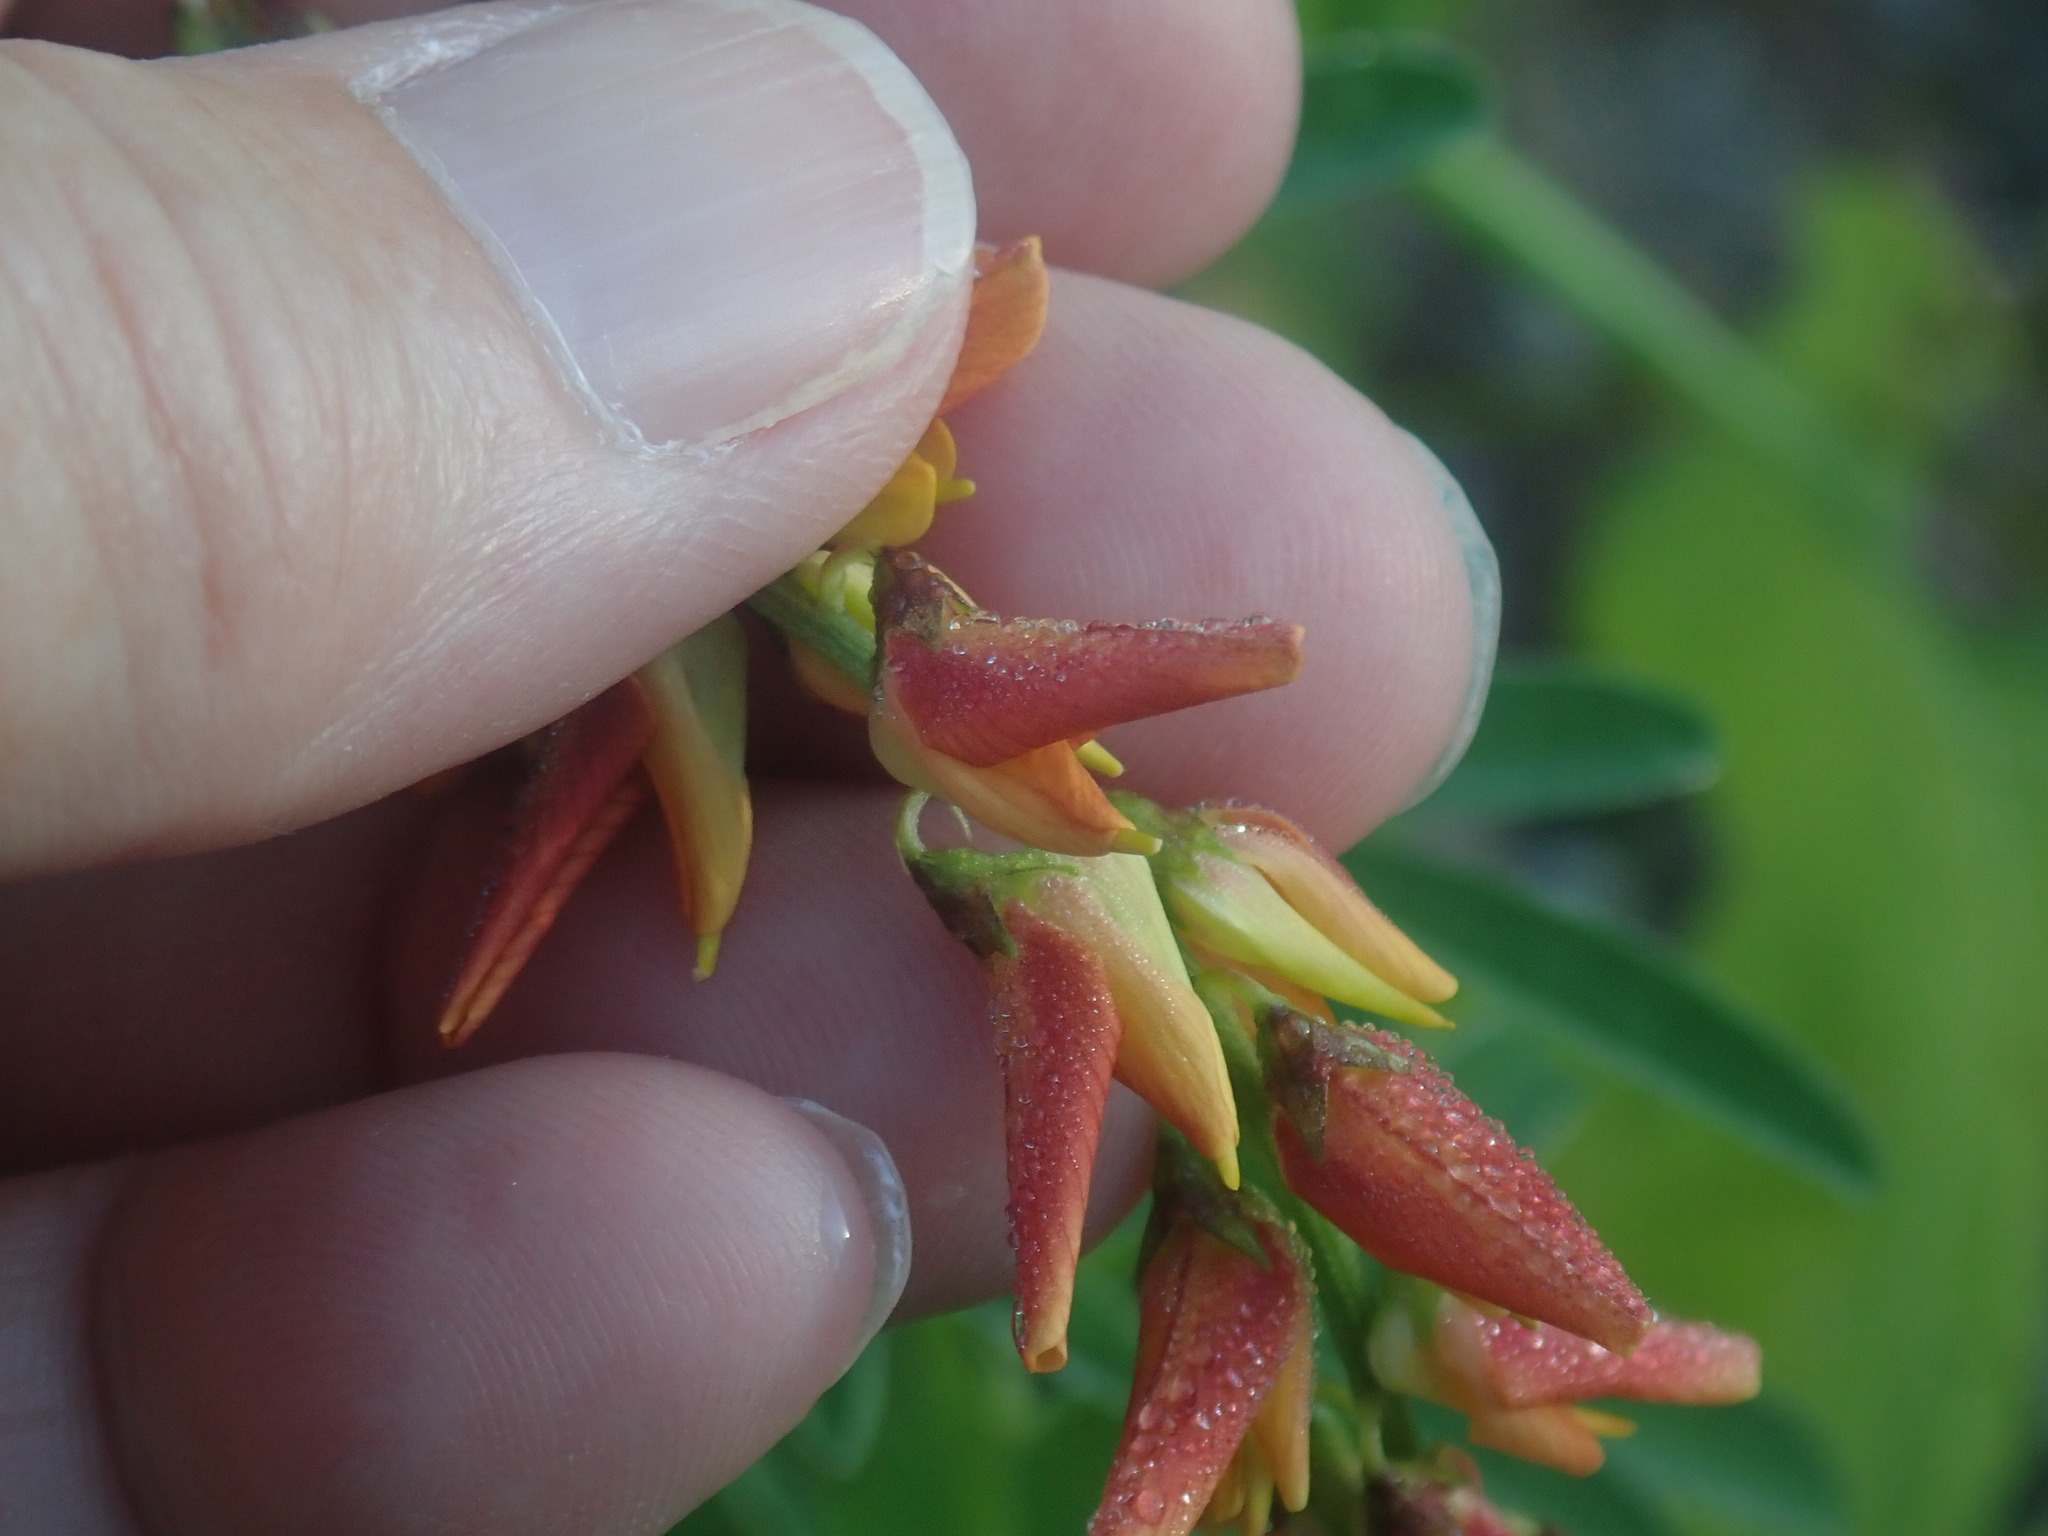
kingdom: Plantae
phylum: Tracheophyta
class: Magnoliopsida
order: Fabales
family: Fabaceae
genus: Crotalaria
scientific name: Crotalaria pumila
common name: Low rattlebox
